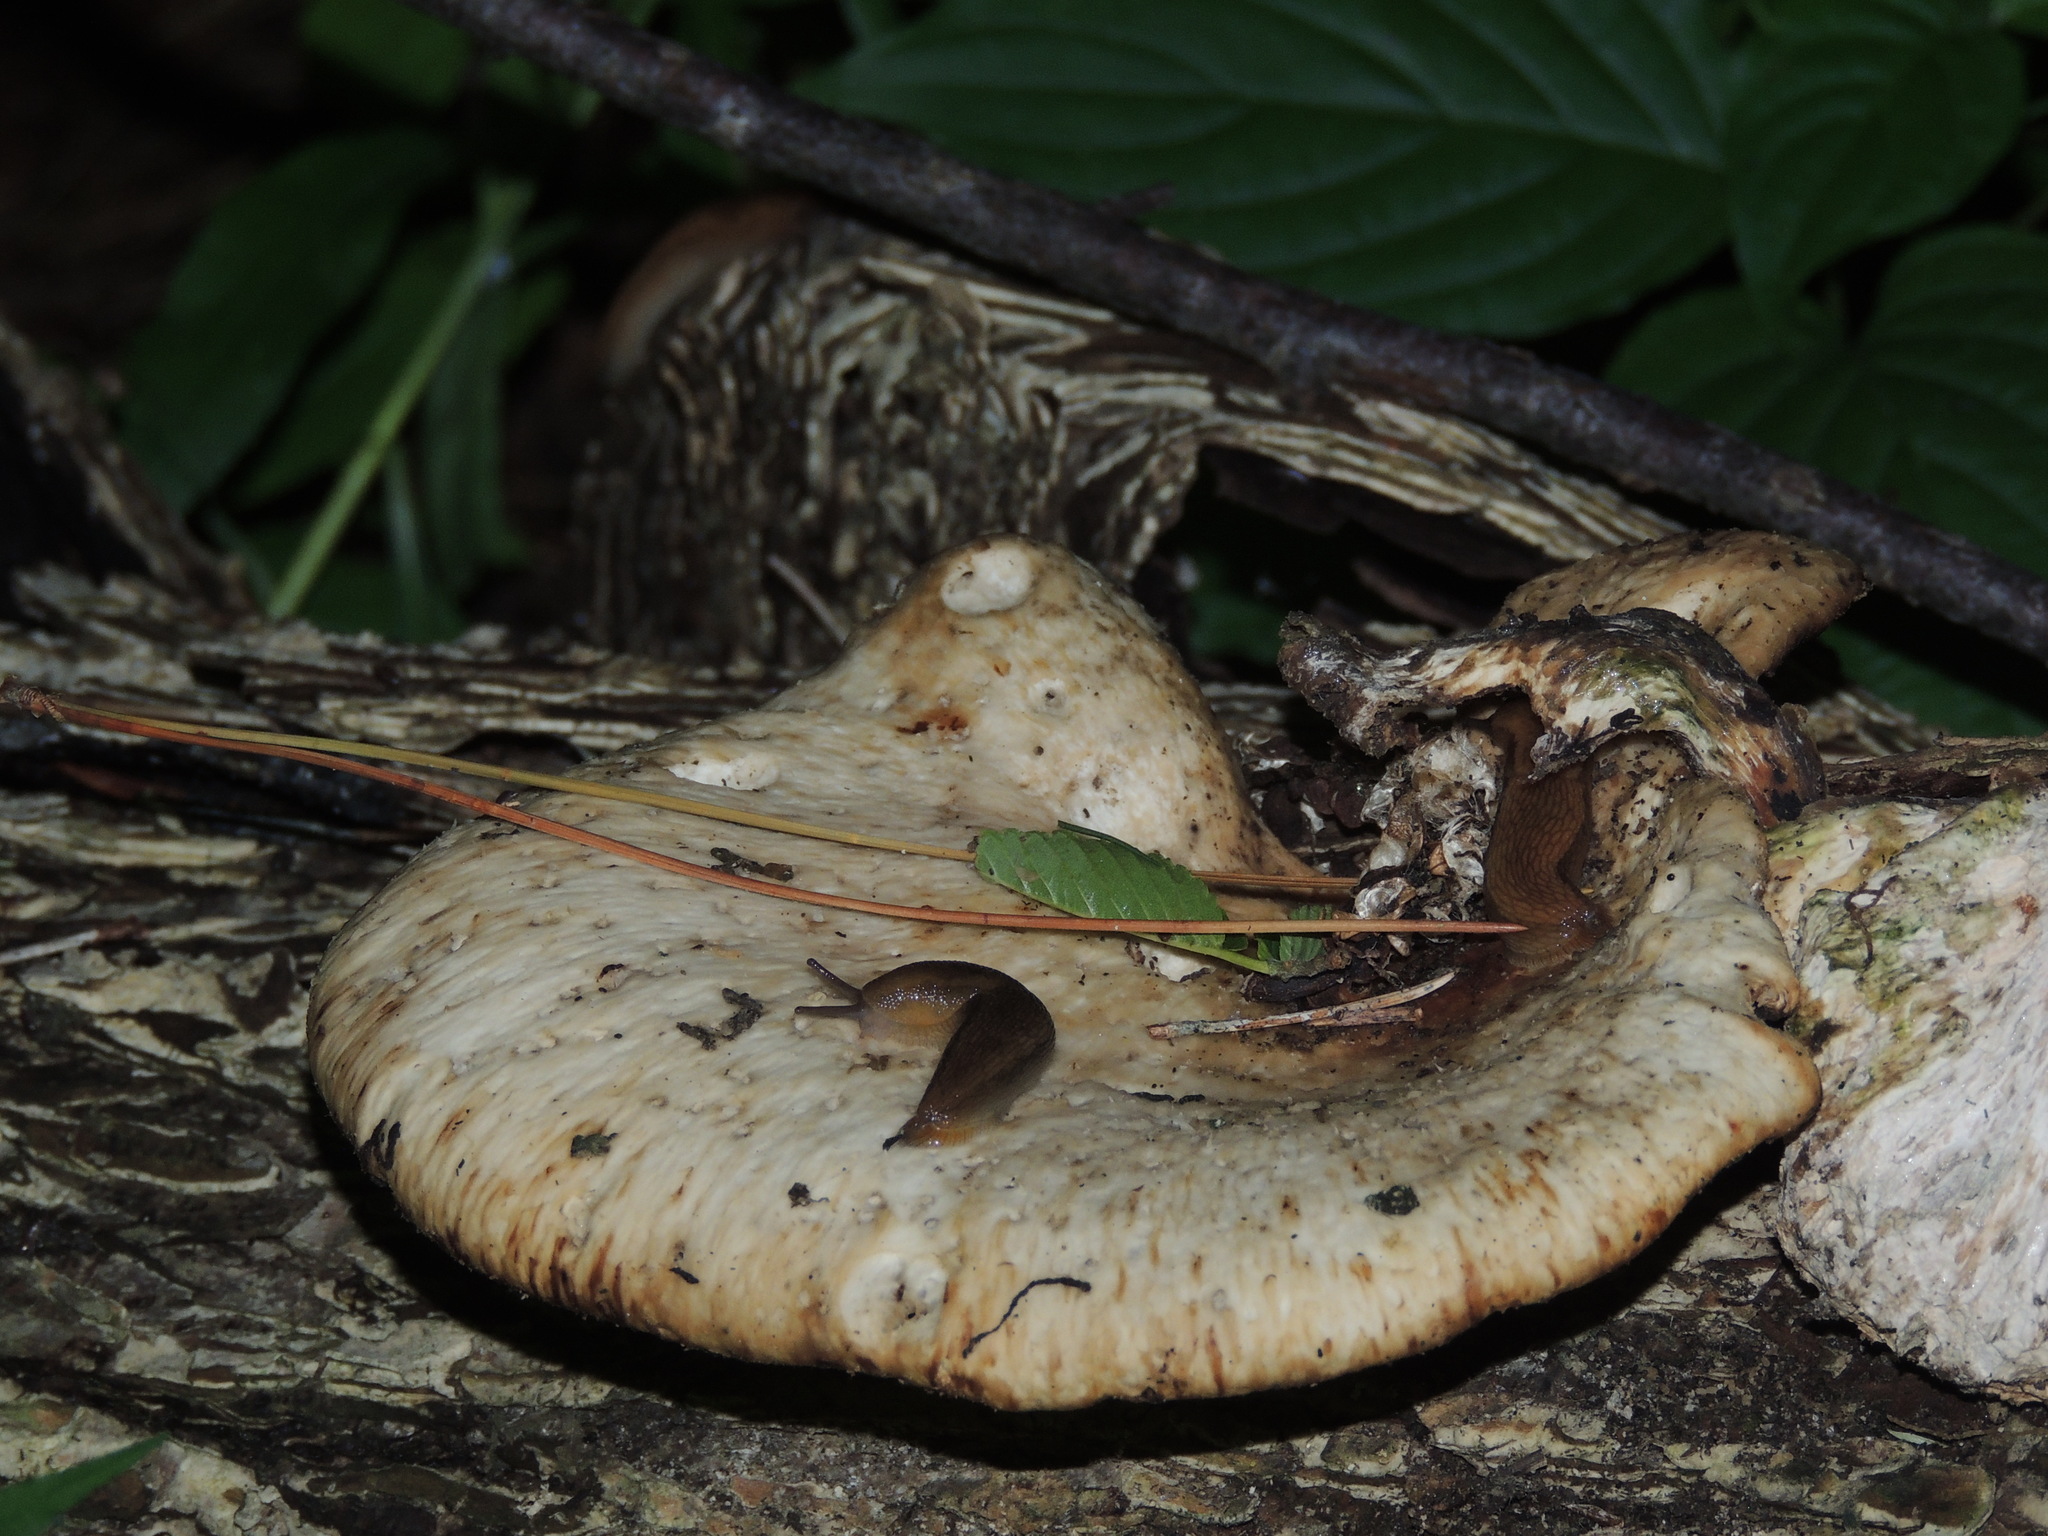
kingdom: Fungi
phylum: Basidiomycota
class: Agaricomycetes
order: Polyporales
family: Polyporaceae
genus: Cerioporus
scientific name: Cerioporus squamosus
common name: Dryad's saddle
